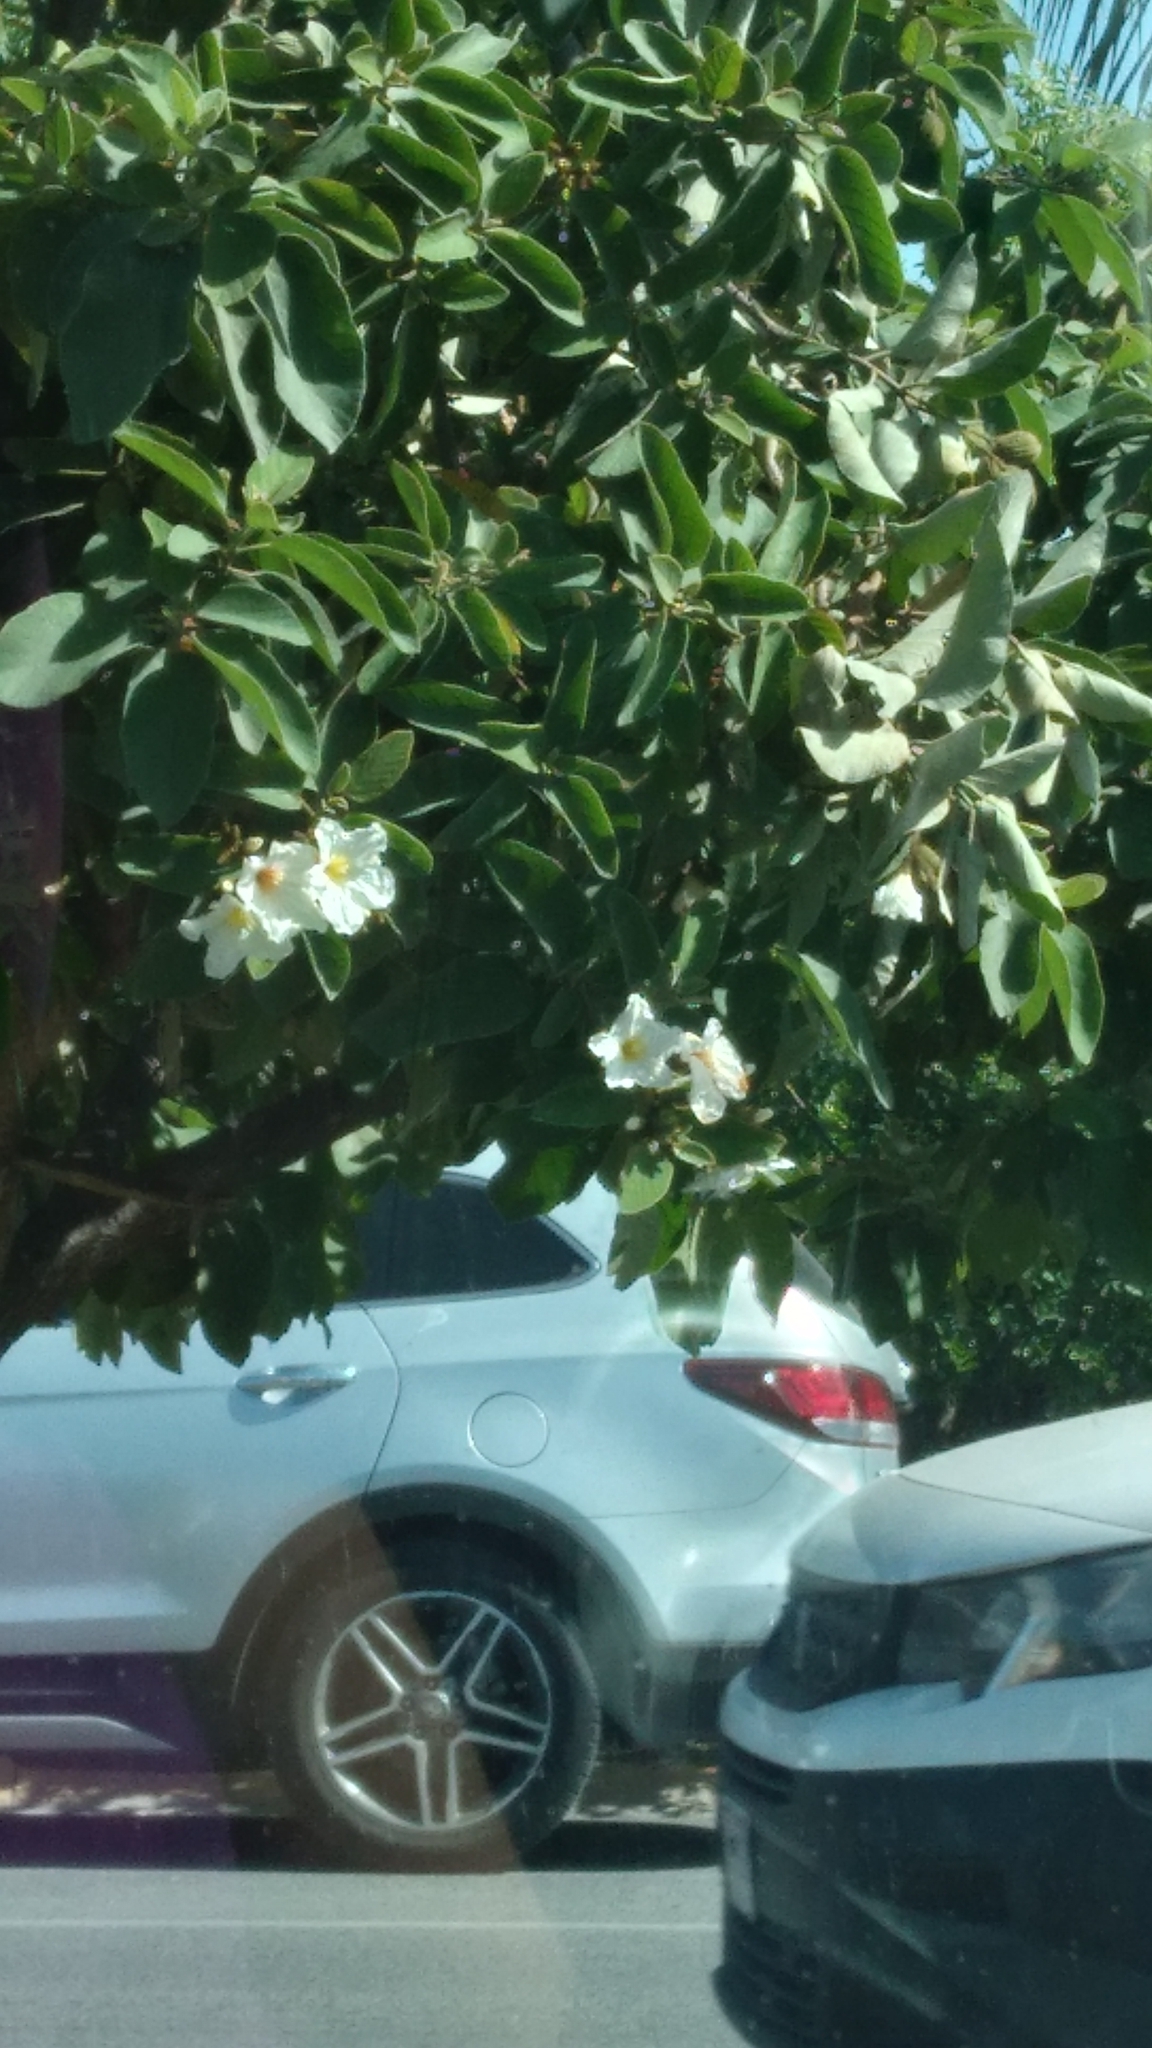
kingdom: Plantae
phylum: Tracheophyta
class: Magnoliopsida
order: Boraginales
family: Cordiaceae
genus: Cordia
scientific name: Cordia boissieri
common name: Mexican-olive
